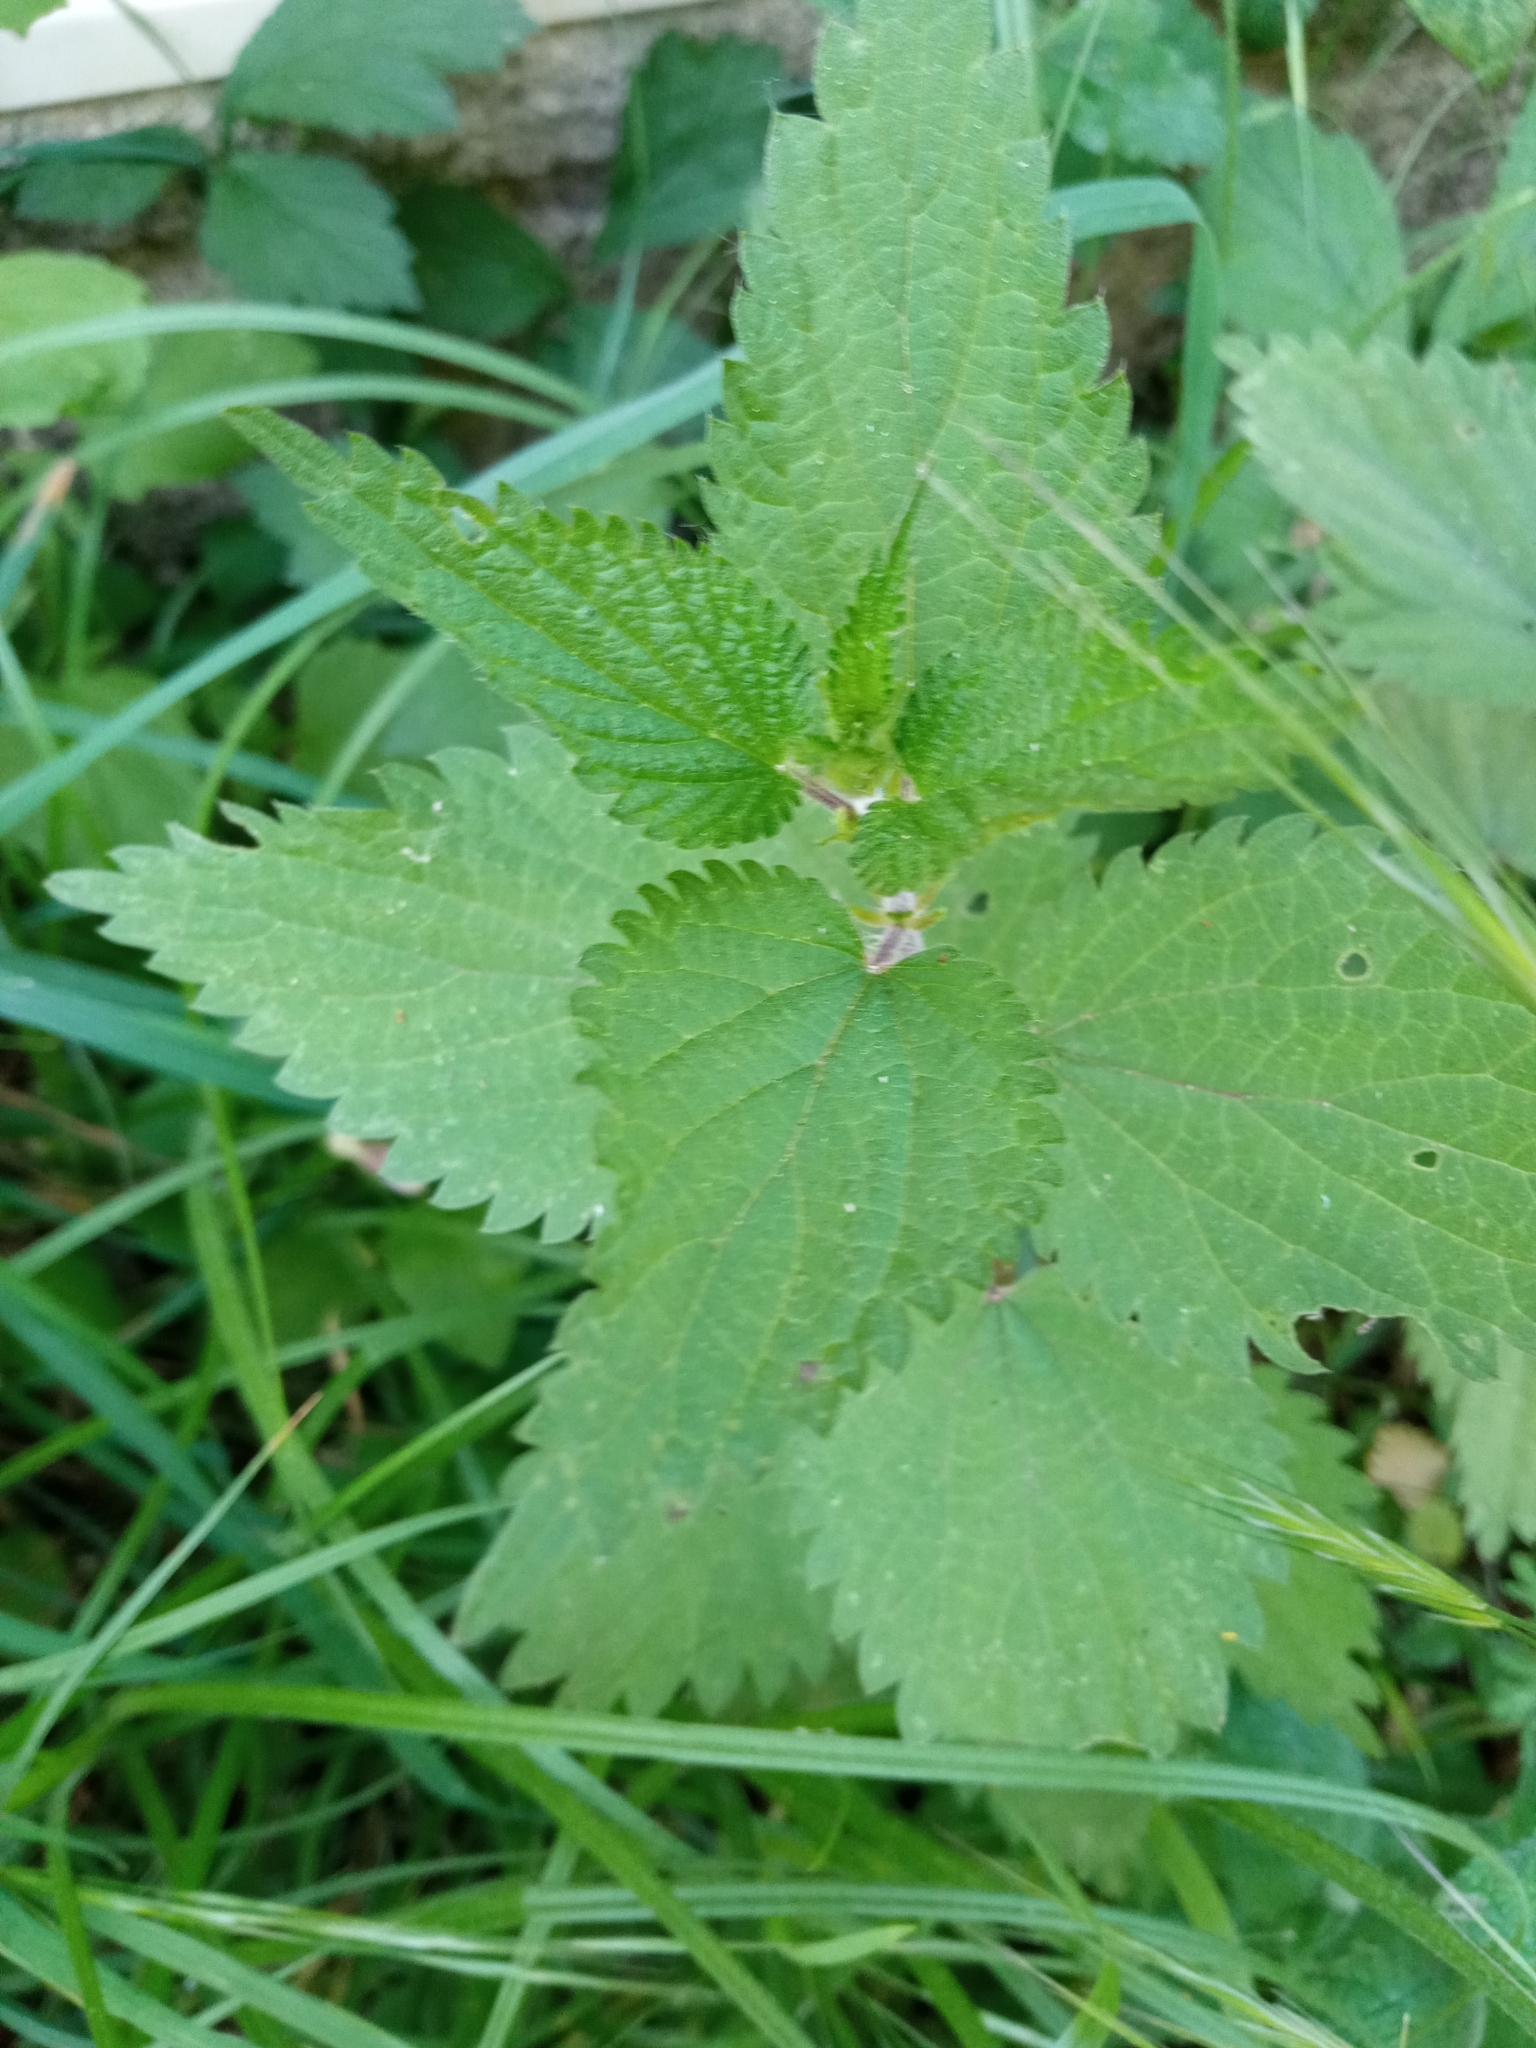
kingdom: Plantae
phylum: Tracheophyta
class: Magnoliopsida
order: Rosales
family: Urticaceae
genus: Urtica
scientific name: Urtica dioica
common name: Common nettle
